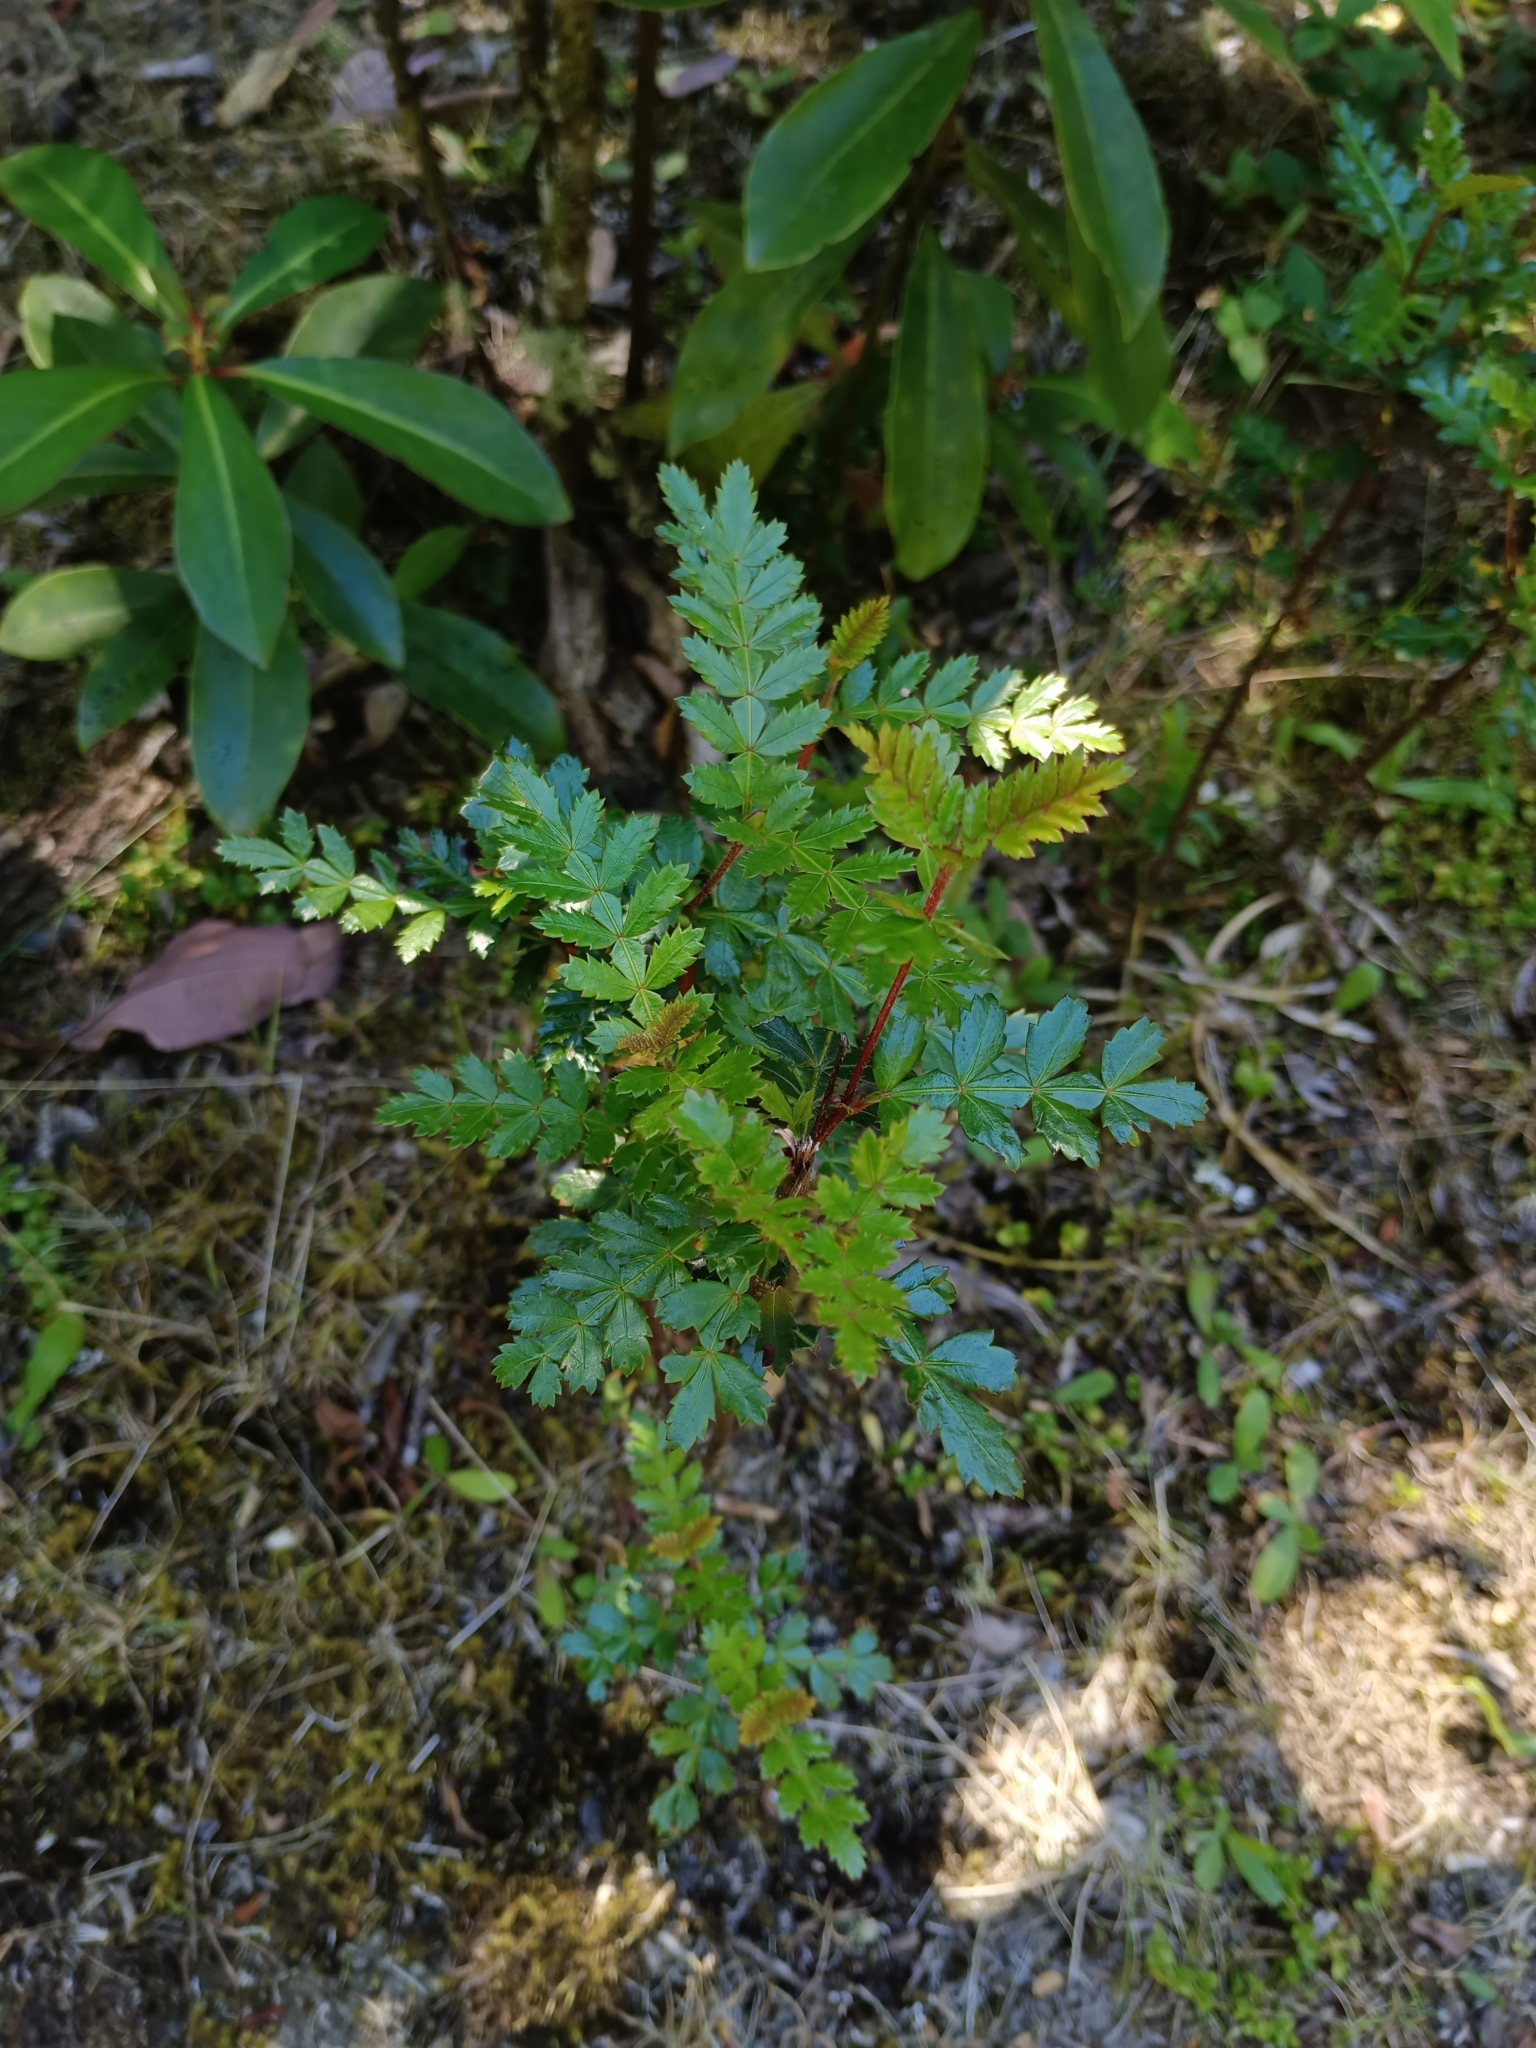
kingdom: Plantae
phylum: Tracheophyta
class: Magnoliopsida
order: Oxalidales
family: Cunoniaceae
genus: Weinmannia
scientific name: Weinmannia trichosperma
